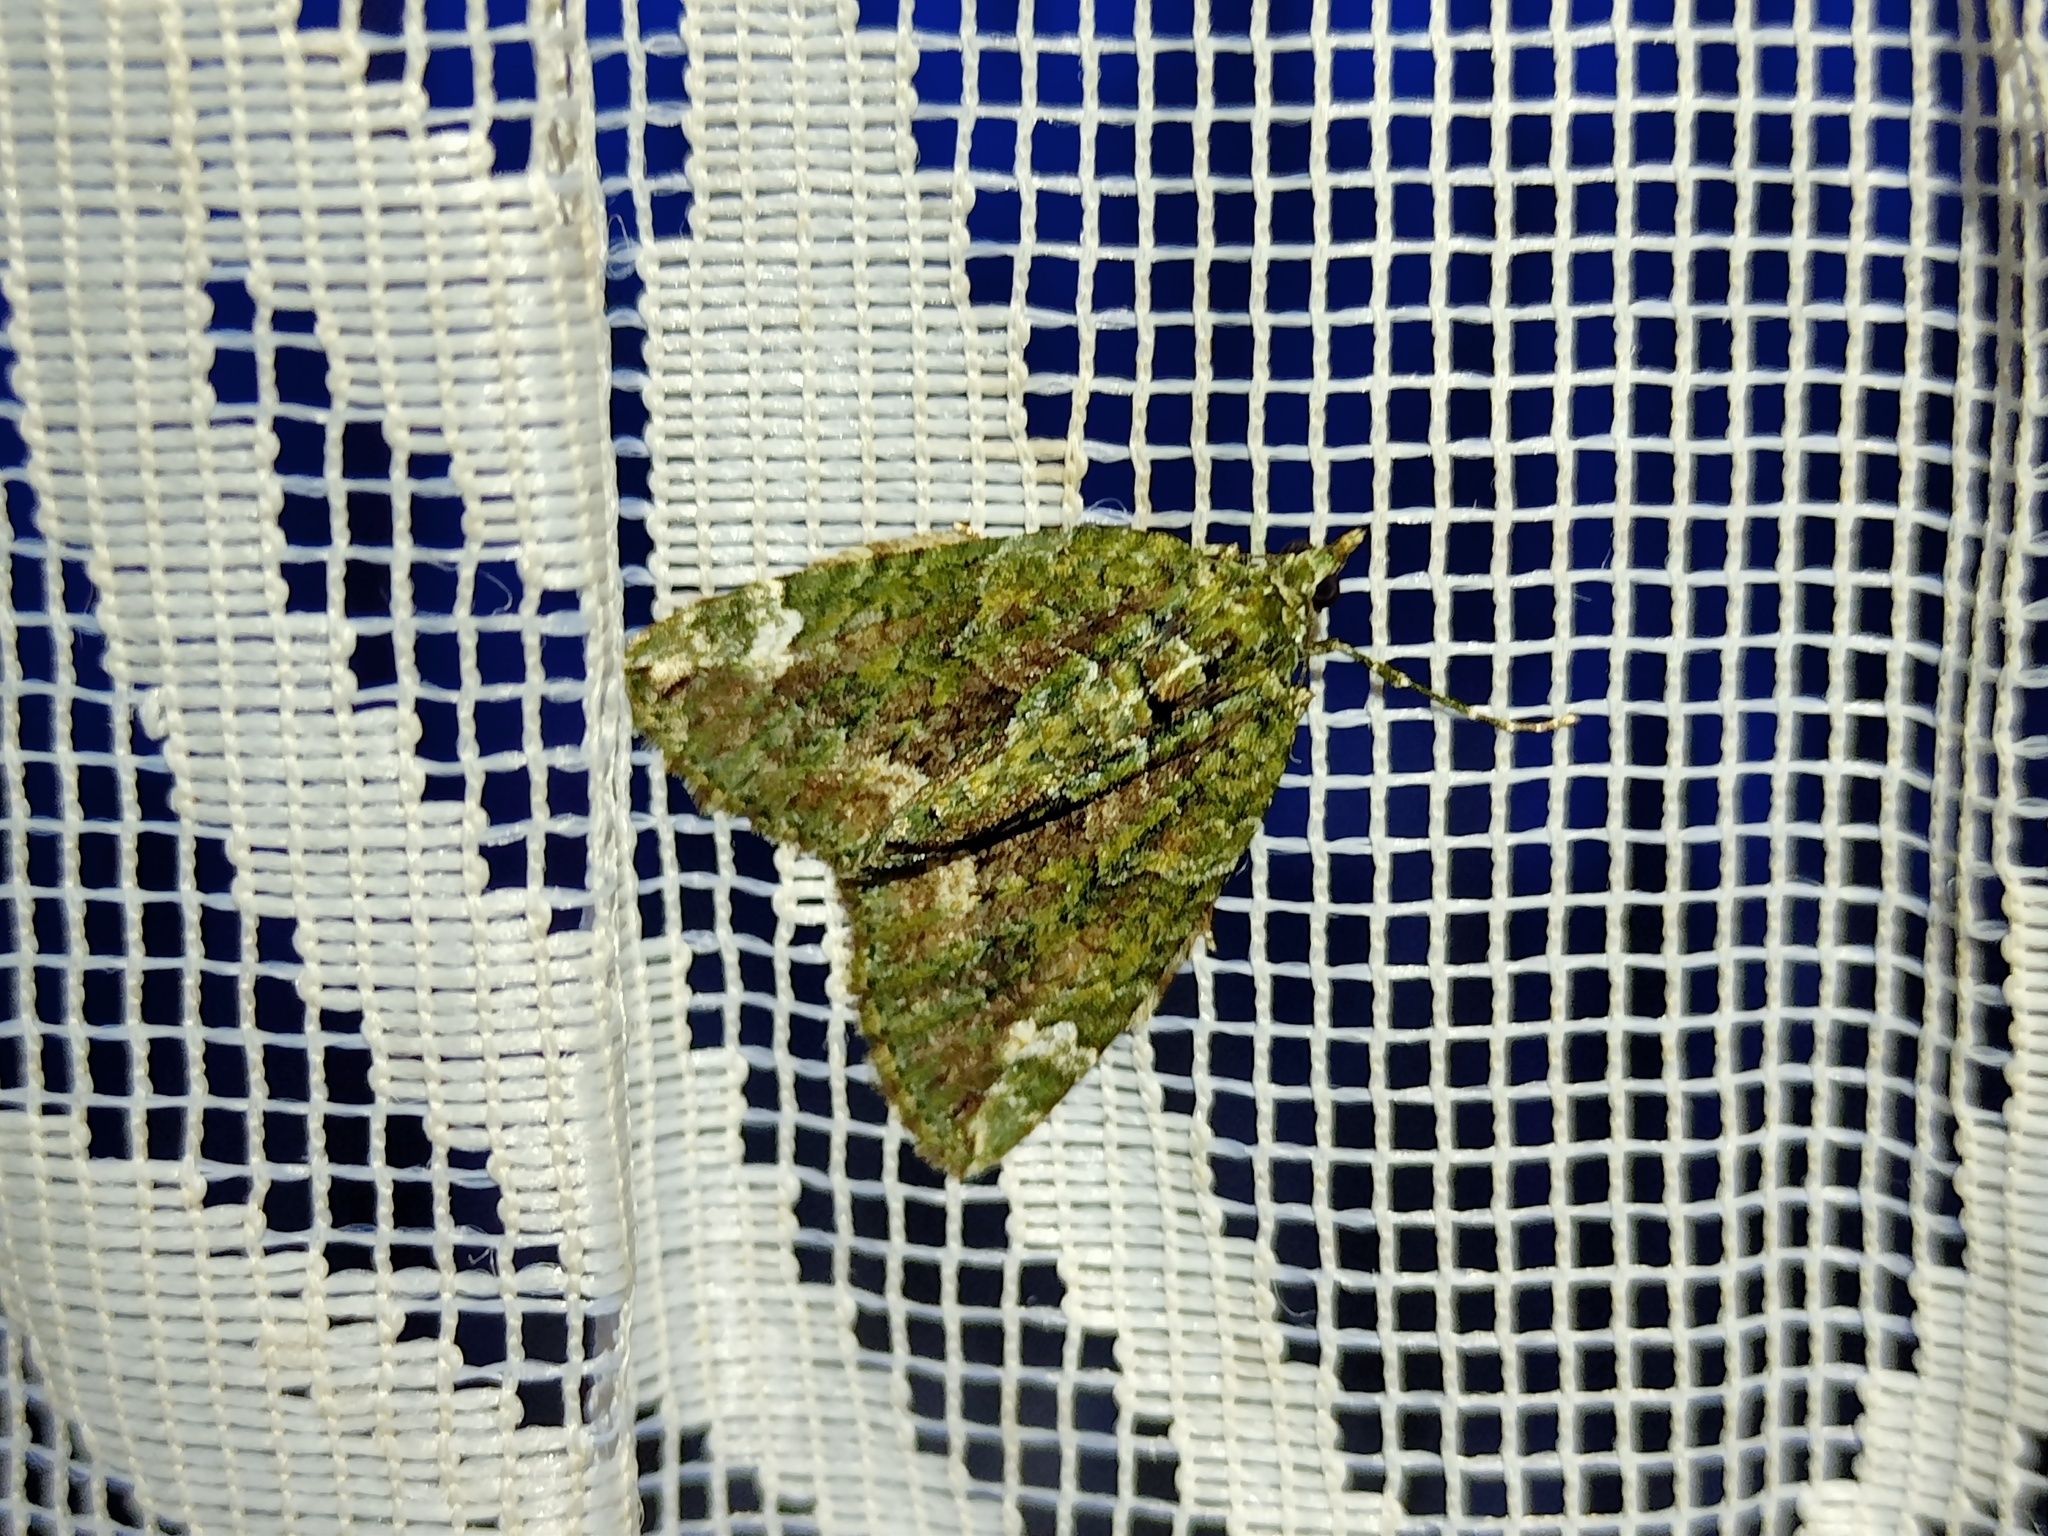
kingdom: Animalia
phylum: Arthropoda
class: Insecta
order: Lepidoptera
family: Geometridae
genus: Chloroclysta
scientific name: Chloroclysta siterata
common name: Red-green carpet
